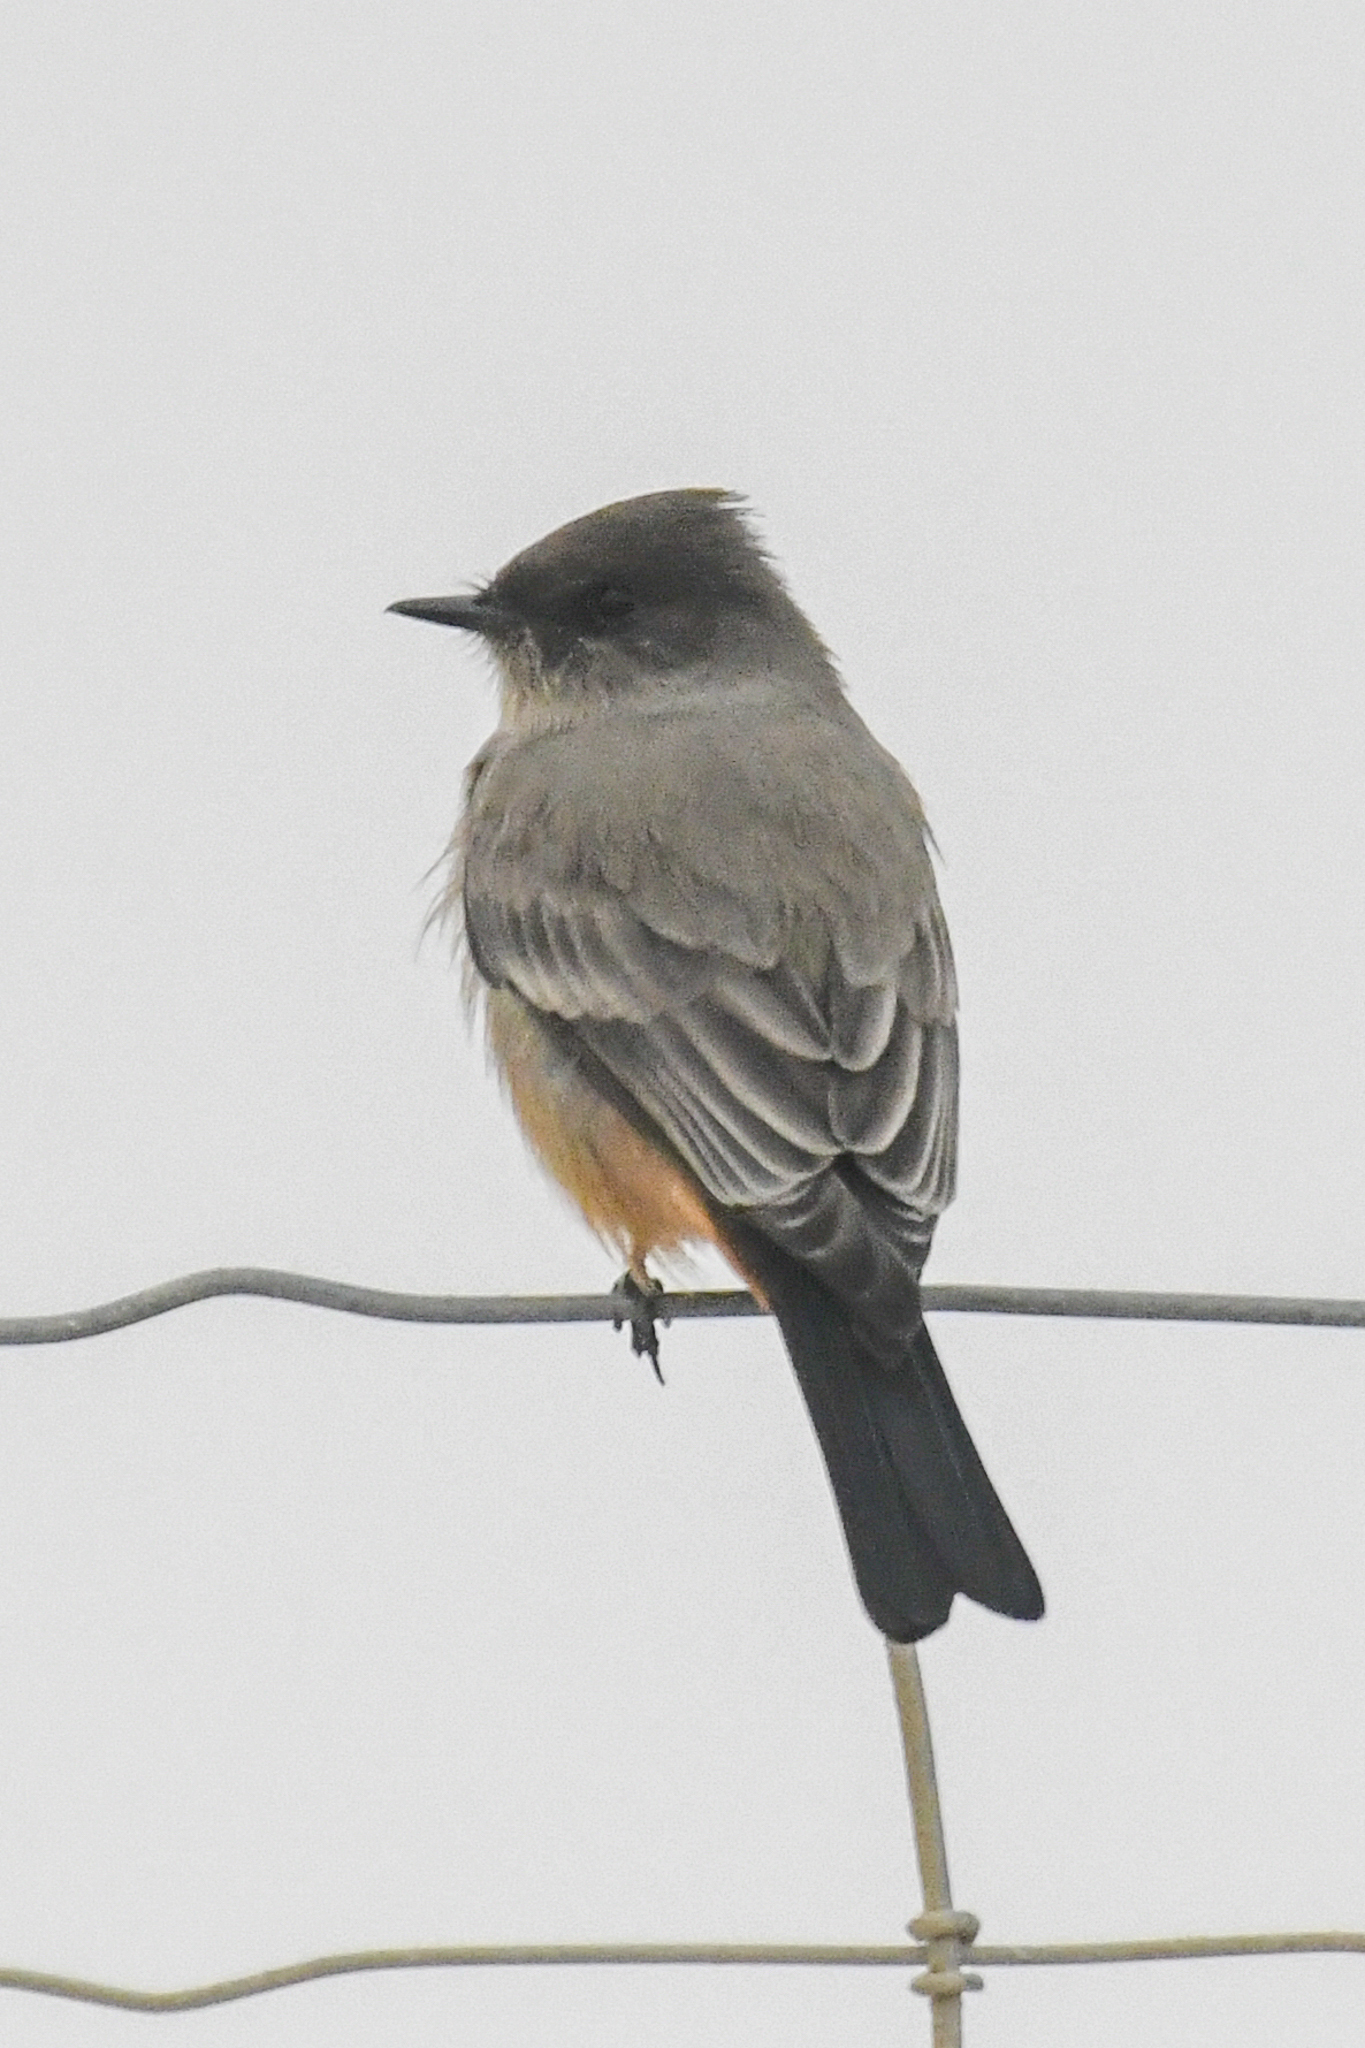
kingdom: Animalia
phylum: Chordata
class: Aves
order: Passeriformes
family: Tyrannidae
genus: Sayornis
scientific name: Sayornis saya
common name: Say's phoebe
